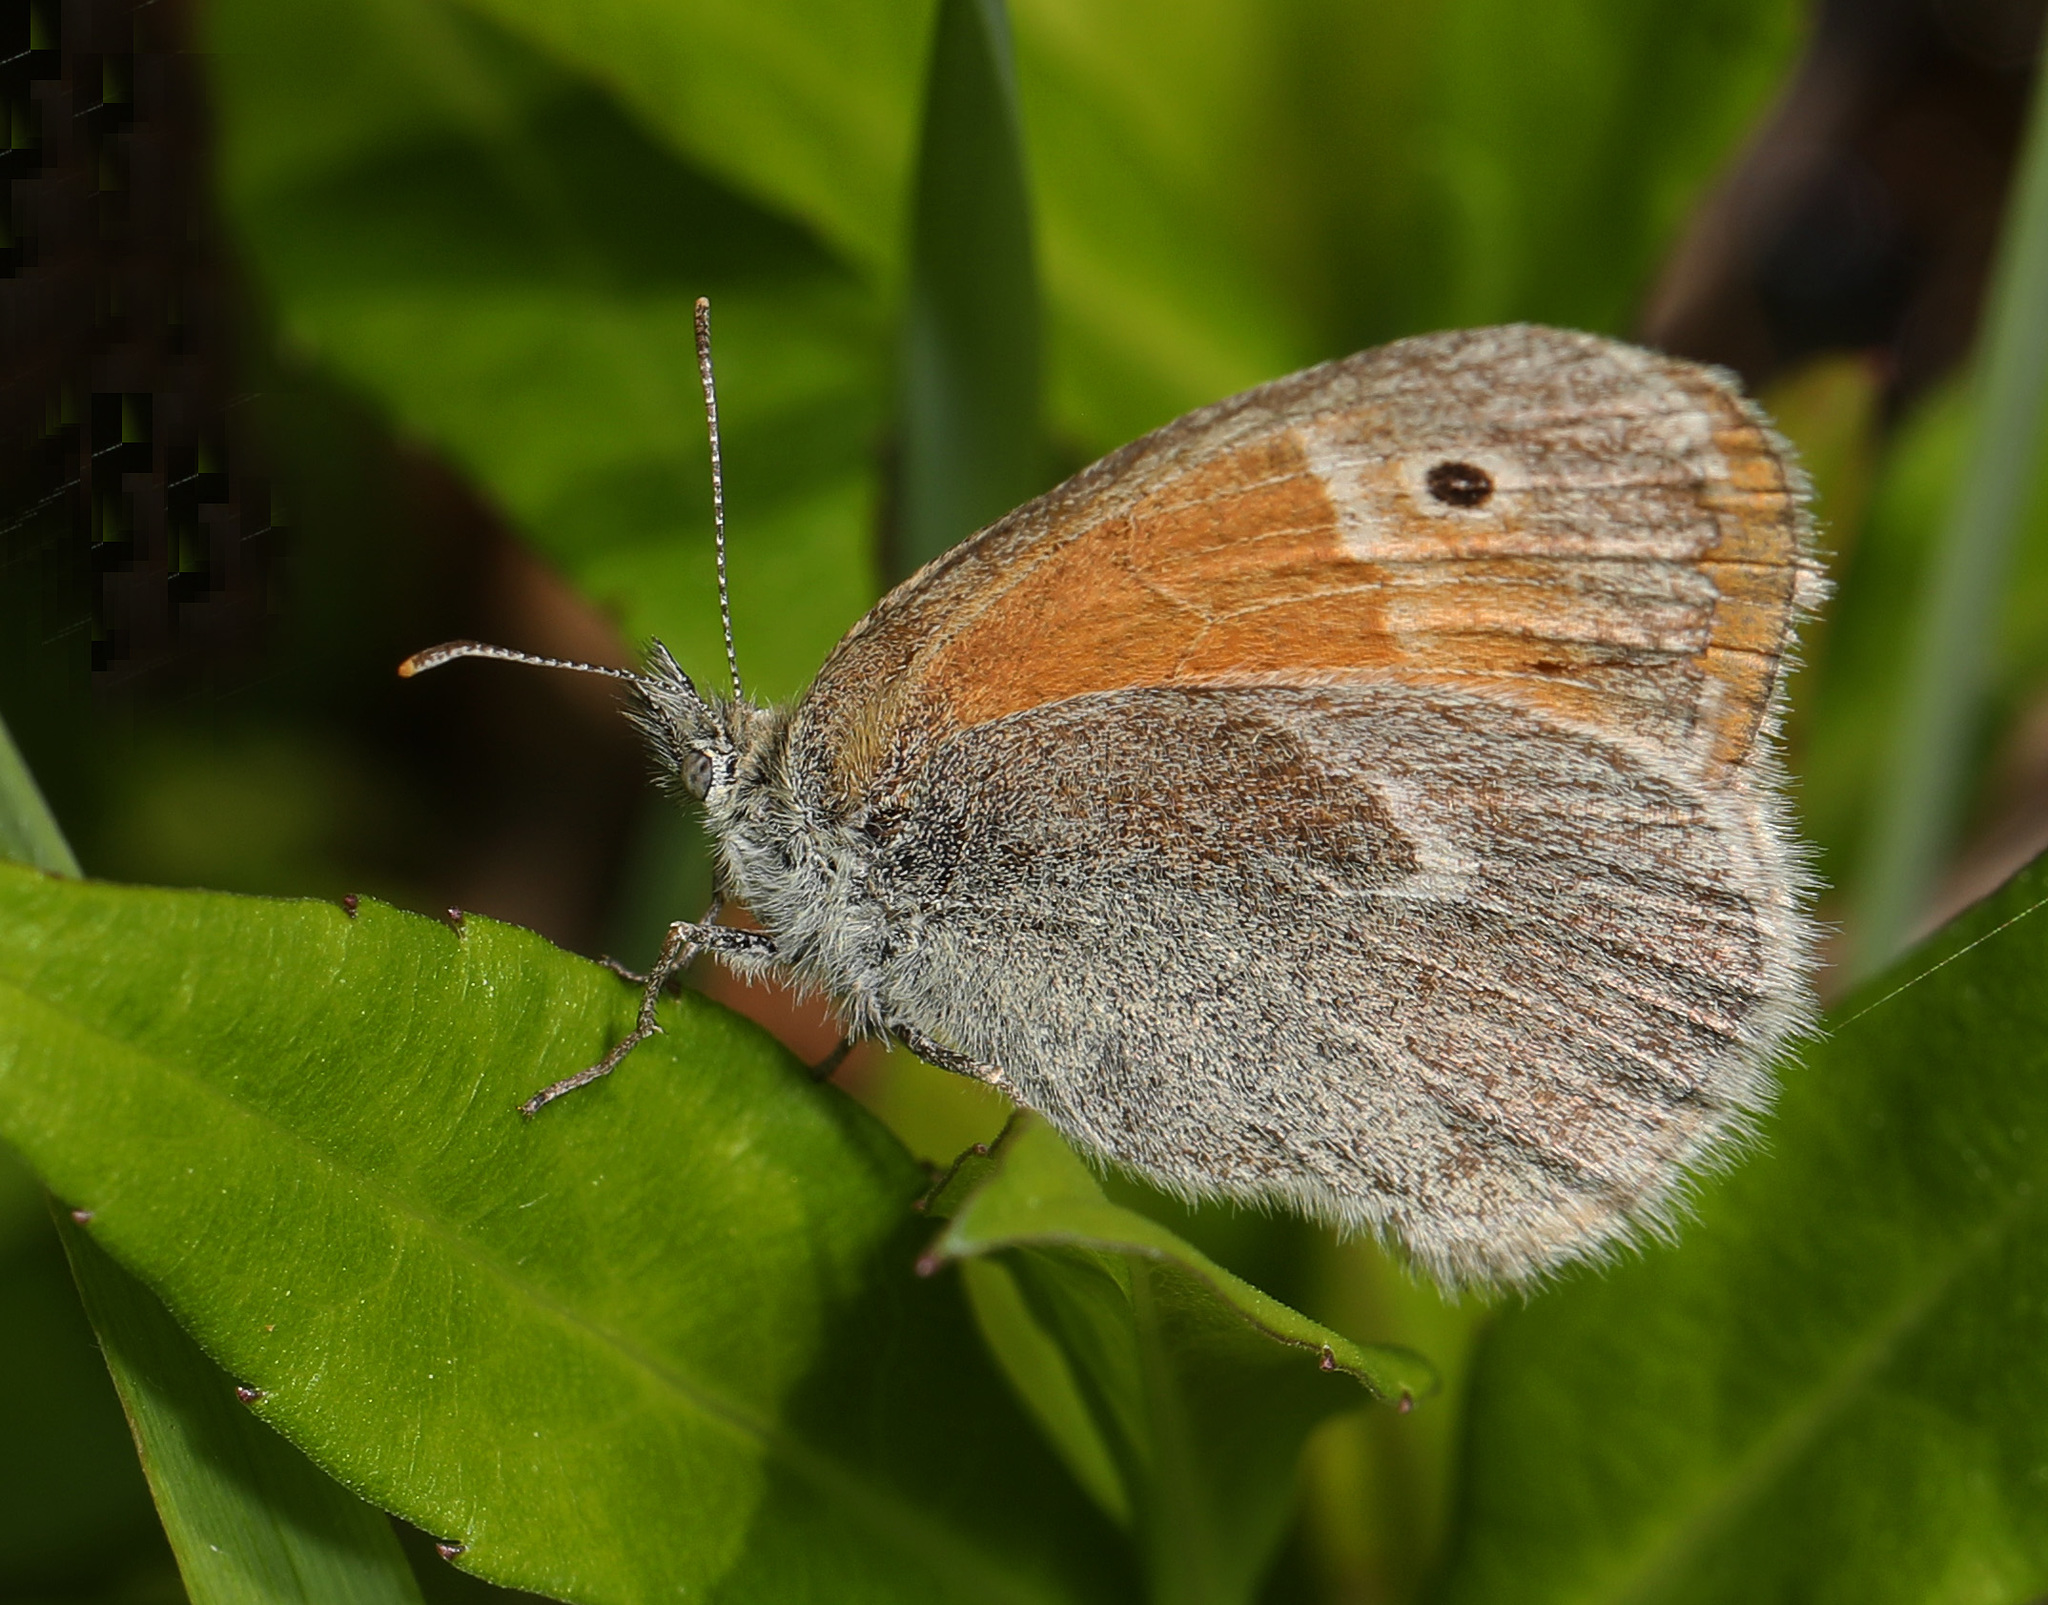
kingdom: Animalia
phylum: Arthropoda
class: Insecta
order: Lepidoptera
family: Nymphalidae
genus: Coenonympha
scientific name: Coenonympha california
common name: Common ringlet
